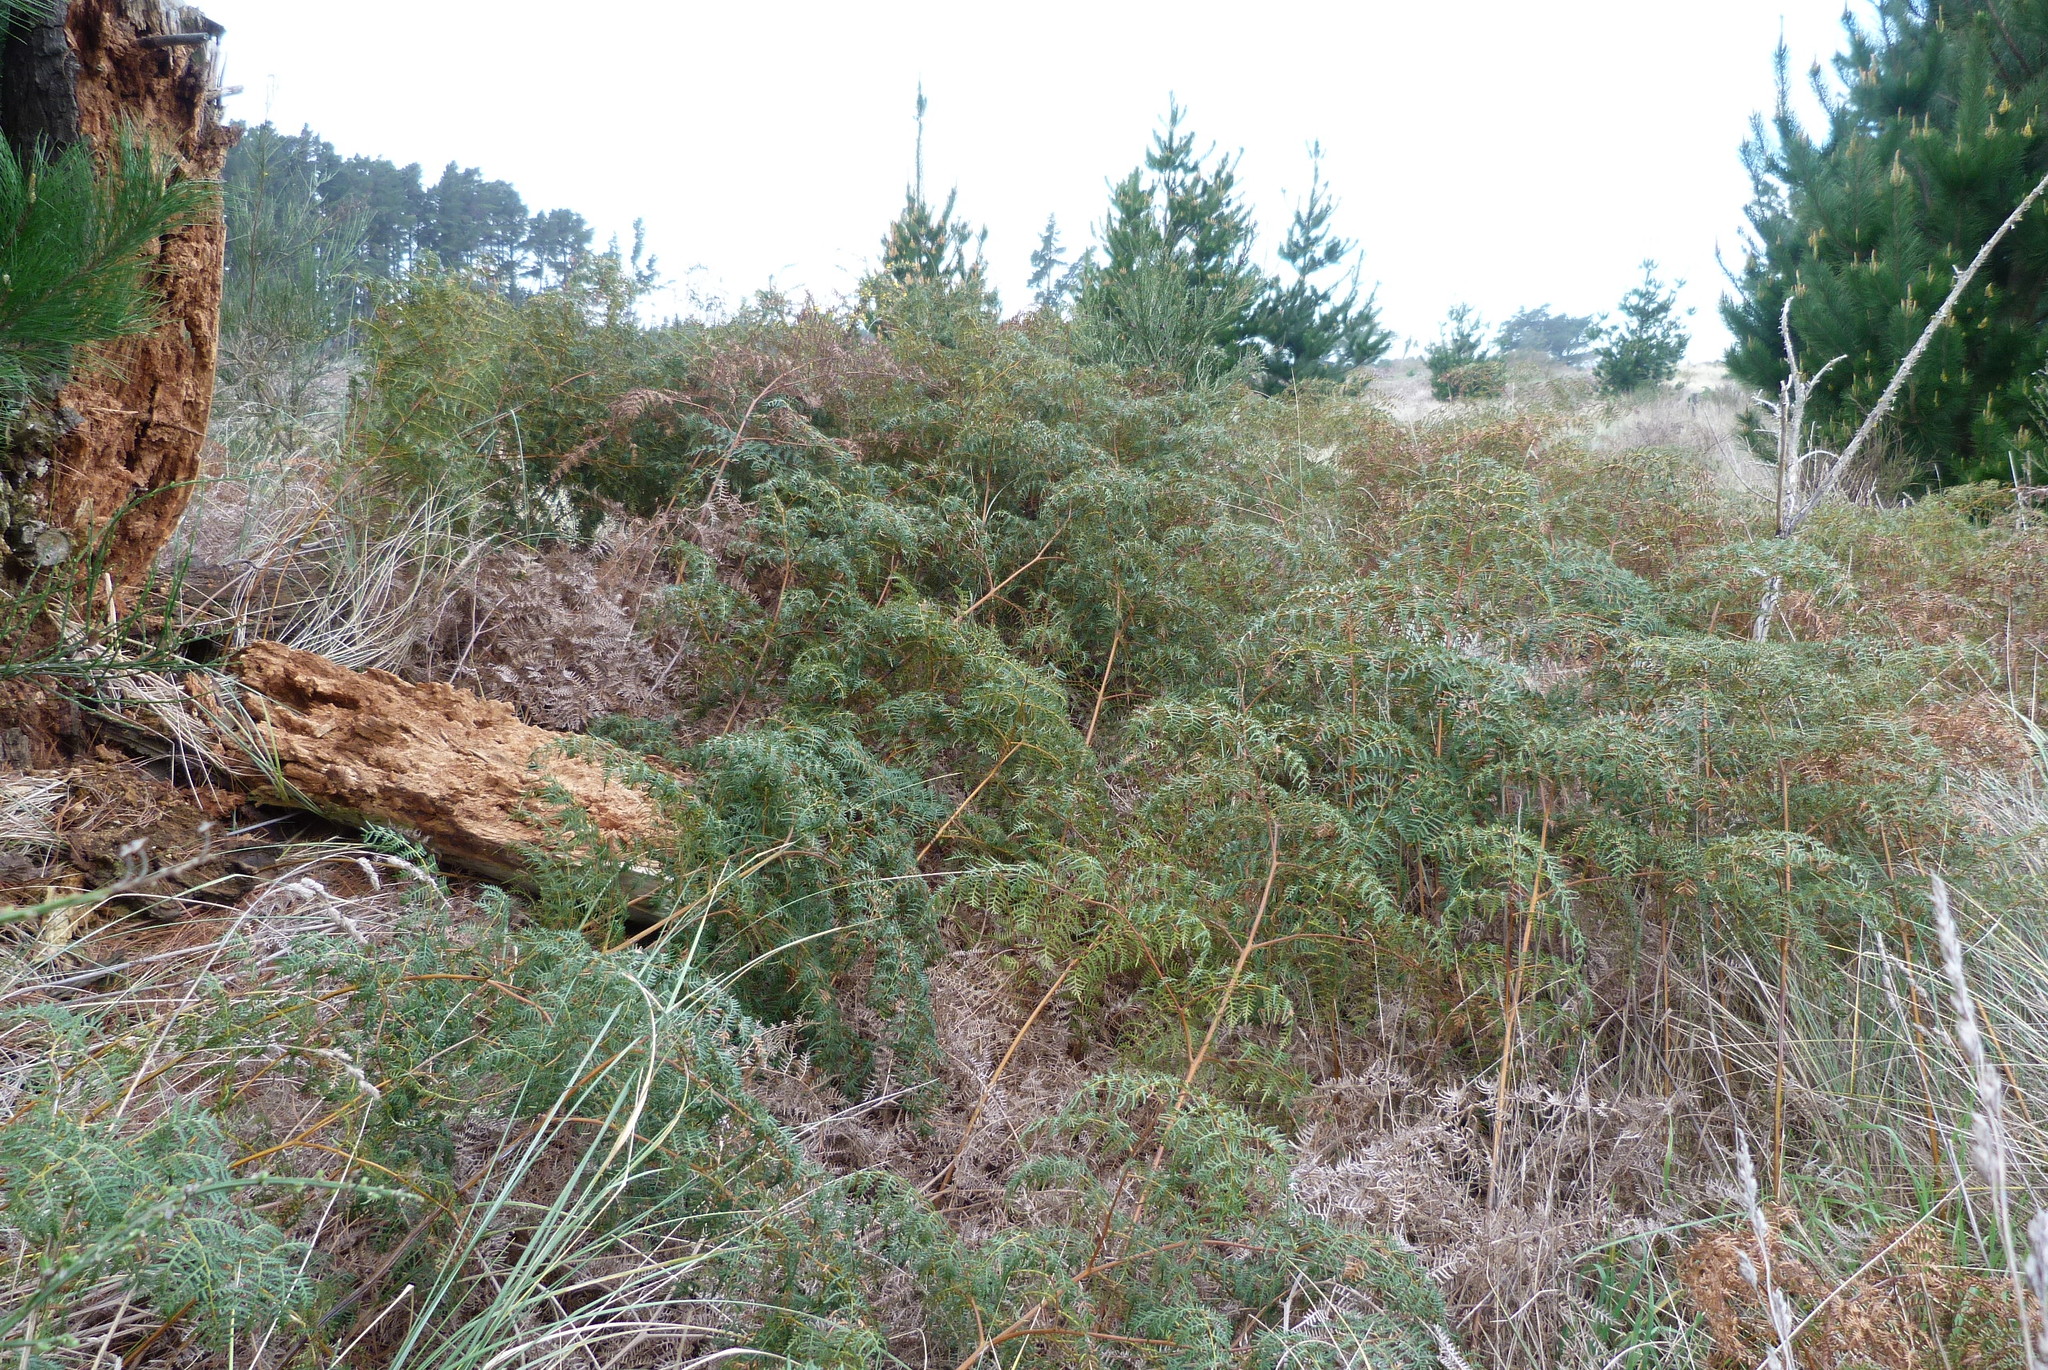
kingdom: Plantae
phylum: Tracheophyta
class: Polypodiopsida
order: Polypodiales
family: Dennstaedtiaceae
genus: Pteridium
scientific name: Pteridium esculentum
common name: Bracken fern
